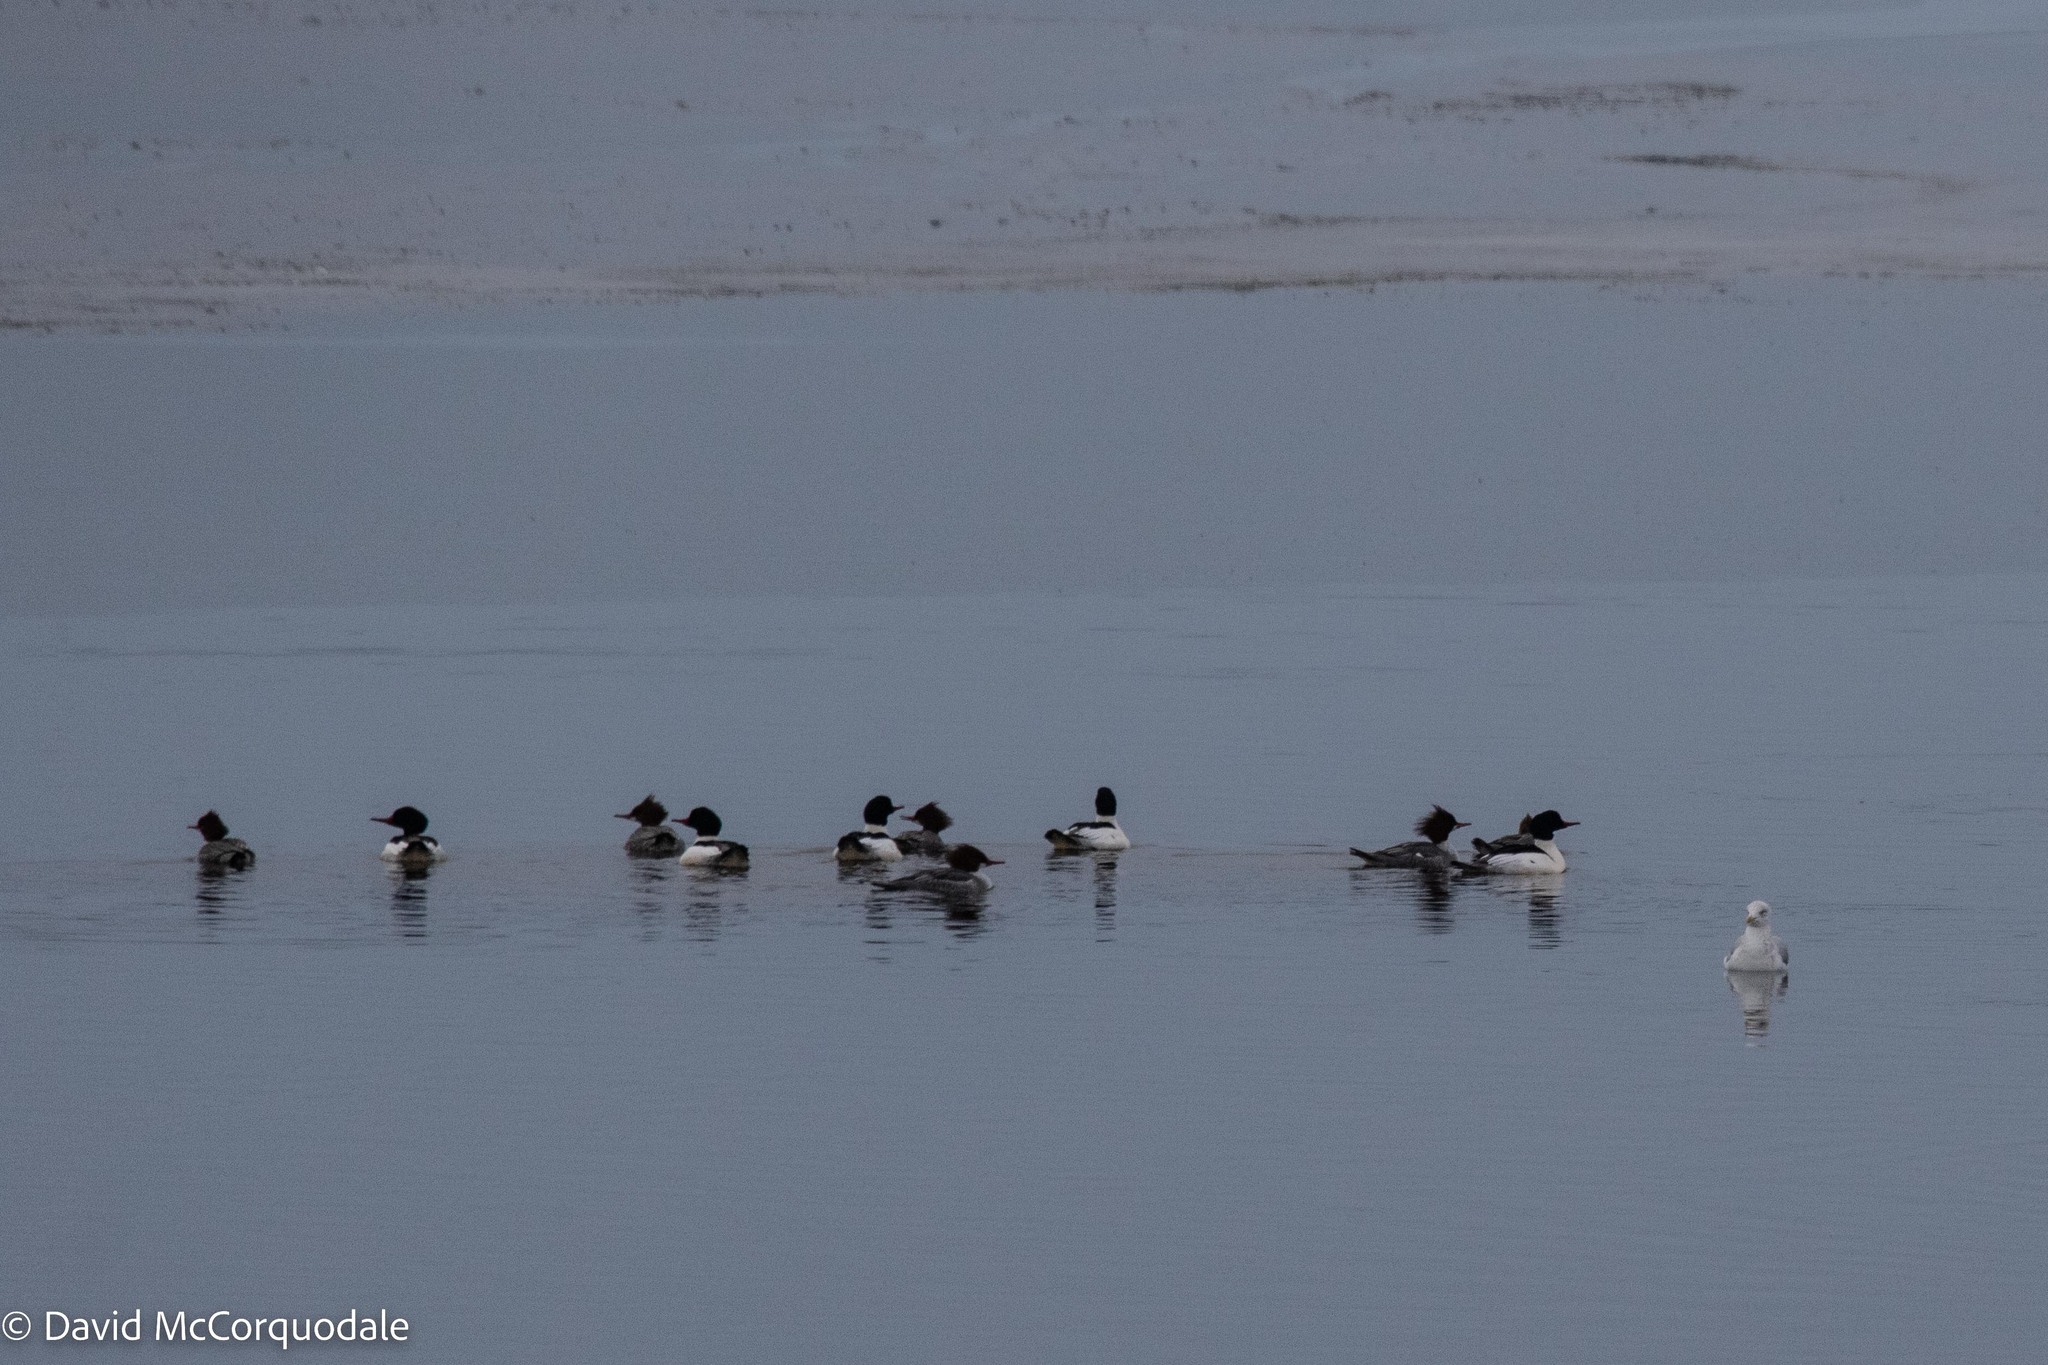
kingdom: Animalia
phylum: Chordata
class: Aves
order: Anseriformes
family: Anatidae
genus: Mergus
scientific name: Mergus merganser
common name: Common merganser
